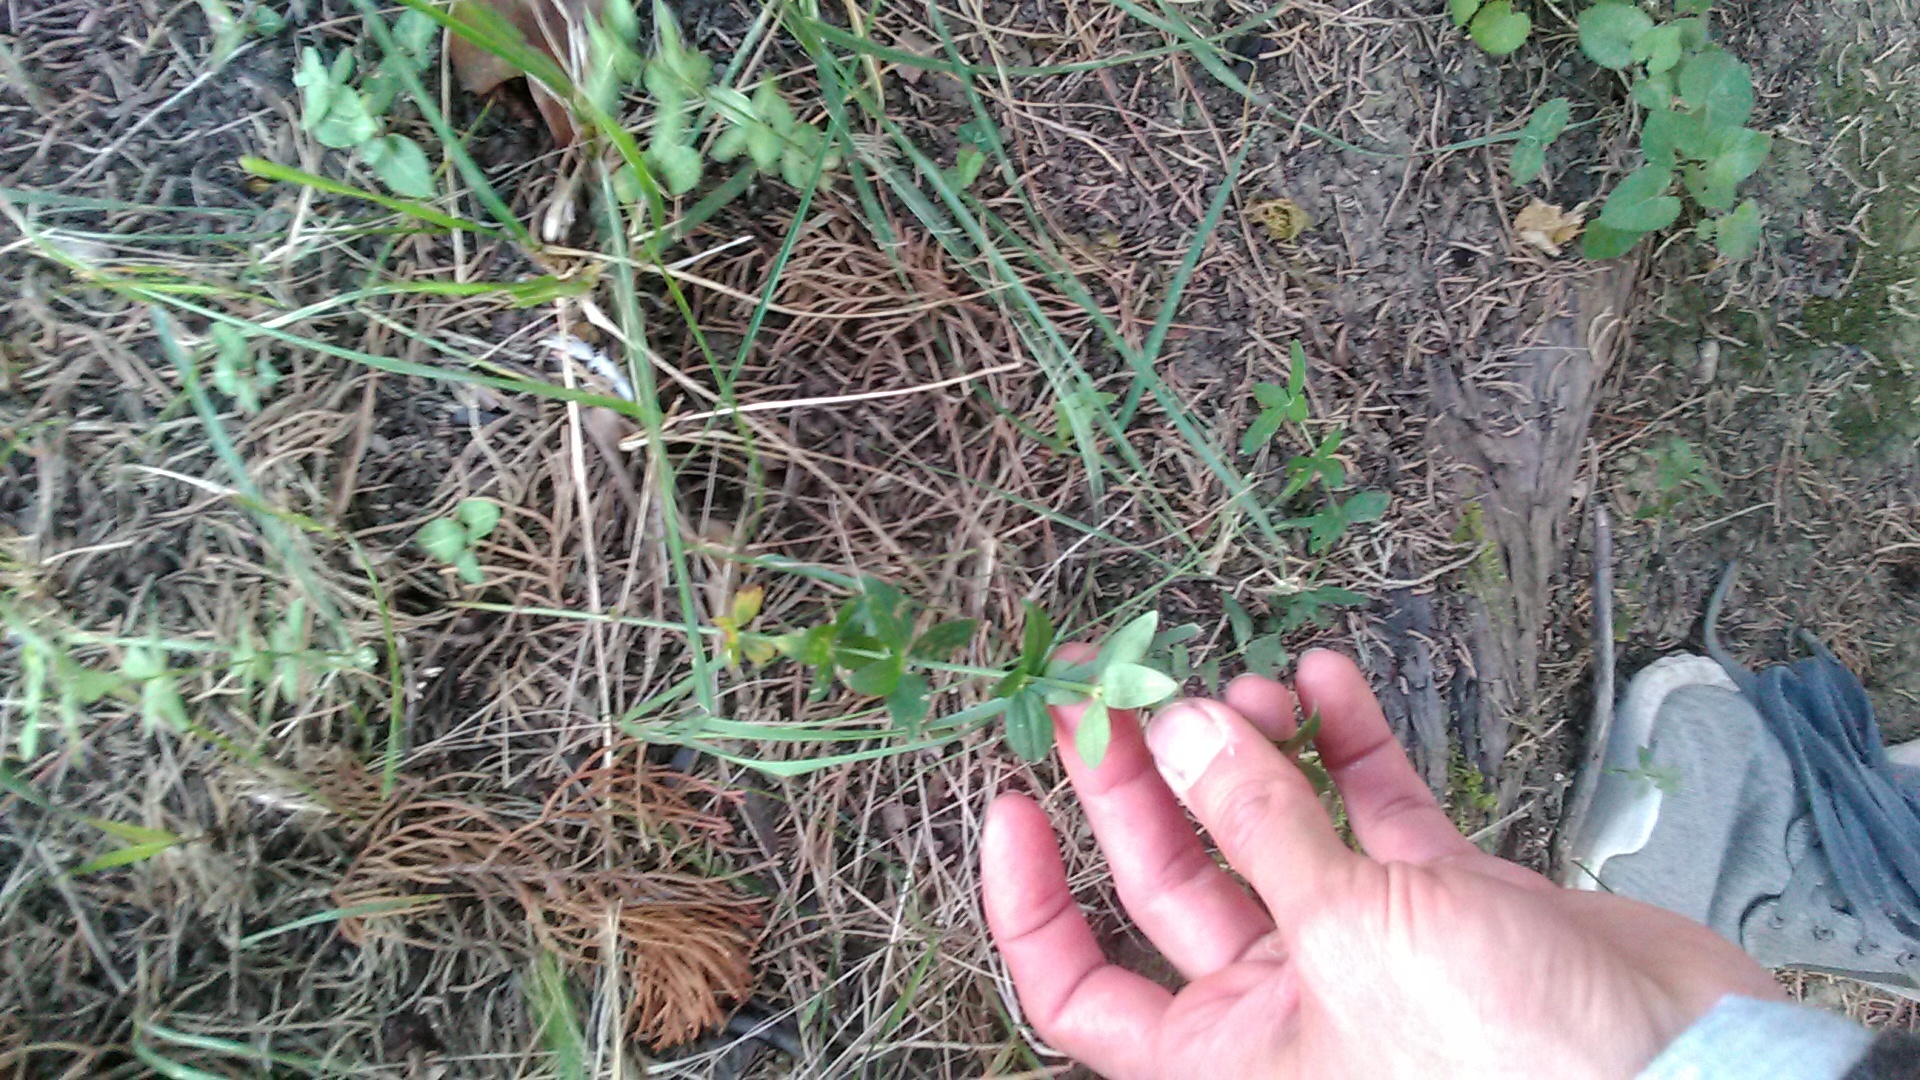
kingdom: Plantae
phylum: Tracheophyta
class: Magnoliopsida
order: Gentianales
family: Rubiaceae
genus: Galium
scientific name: Galium valantioides
